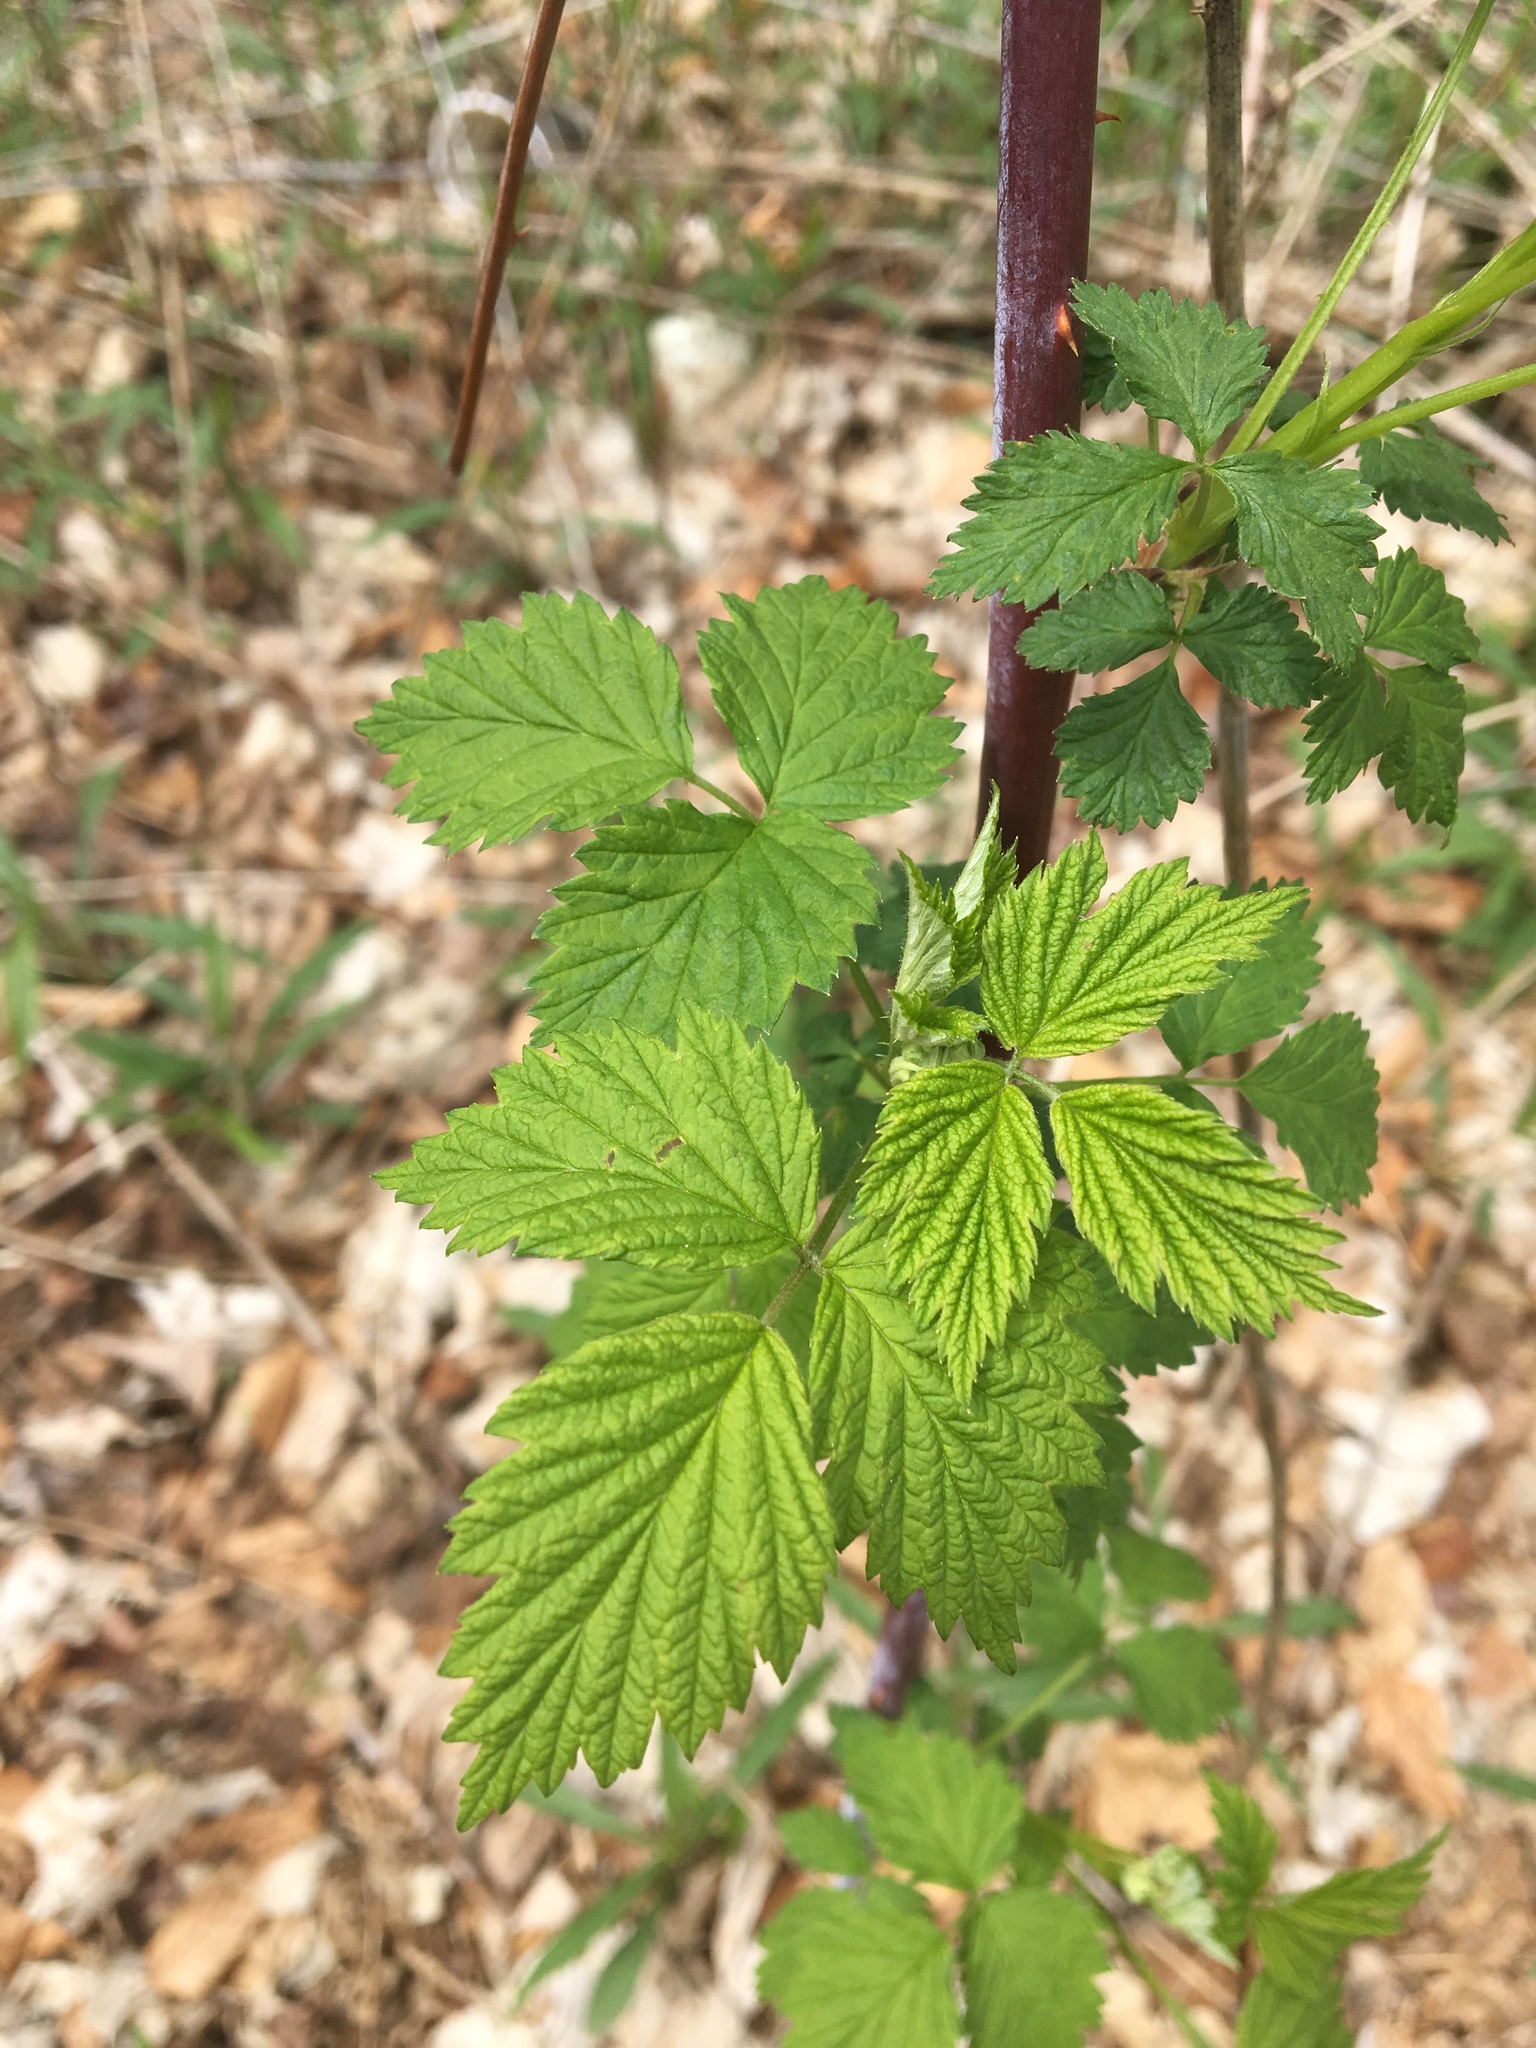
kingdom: Plantae
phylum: Tracheophyta
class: Magnoliopsida
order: Rosales
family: Rosaceae
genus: Rubus
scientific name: Rubus occidentalis
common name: Black raspberry
